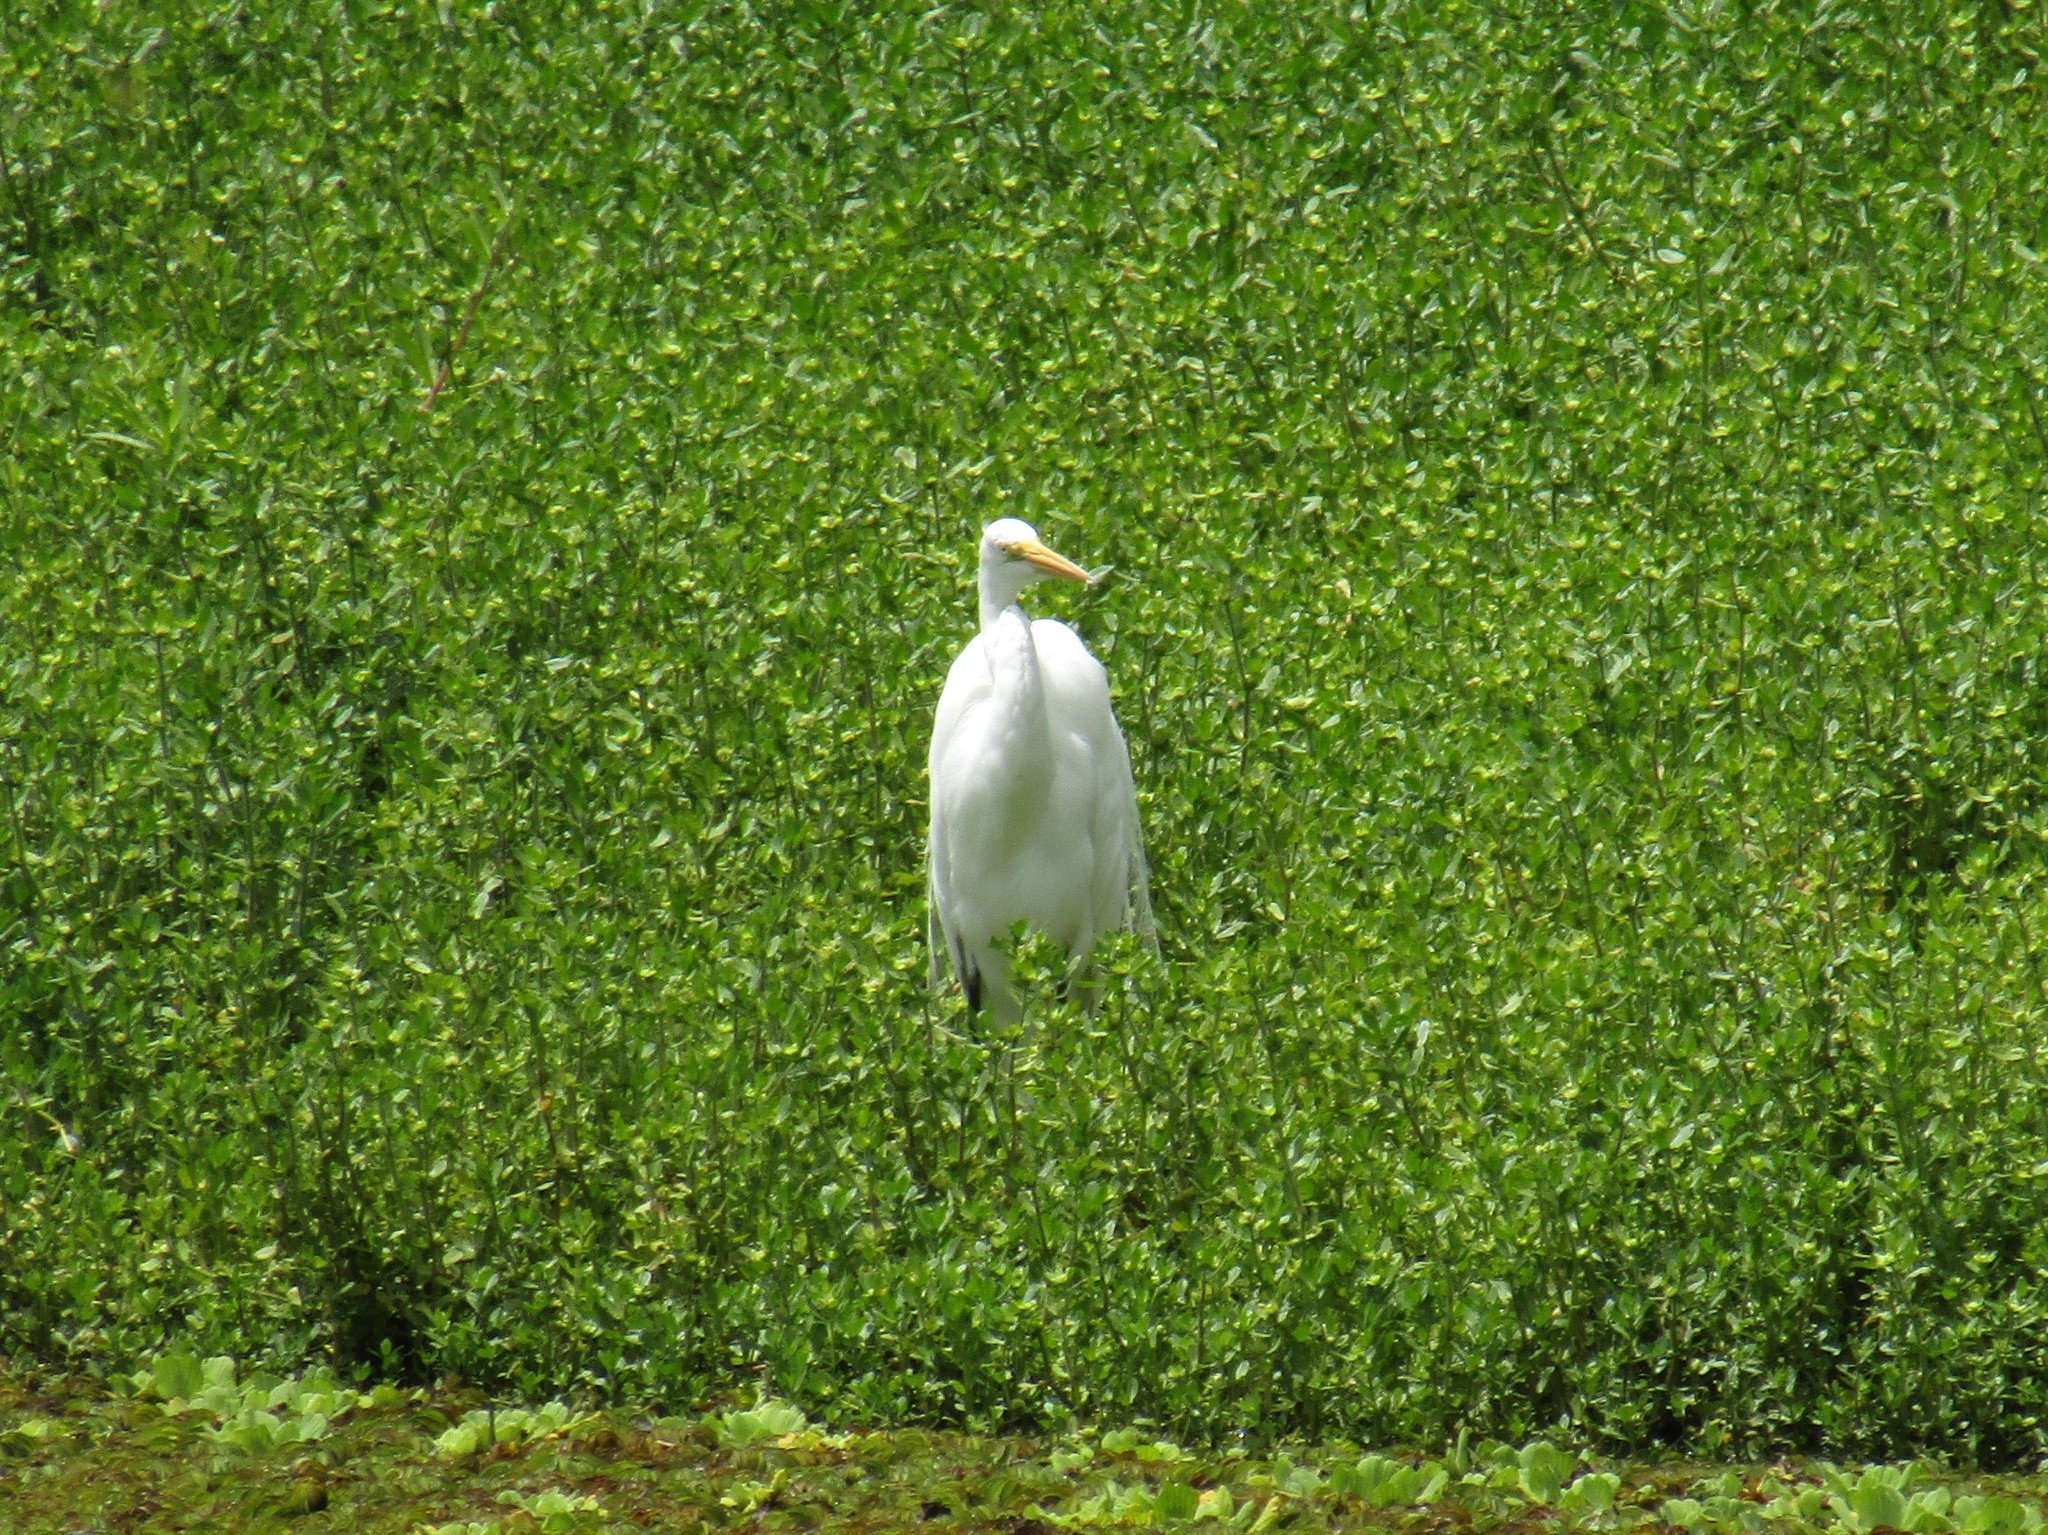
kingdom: Animalia
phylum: Chordata
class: Aves
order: Pelecaniformes
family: Ardeidae
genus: Ardea
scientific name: Ardea alba
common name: Great egret
